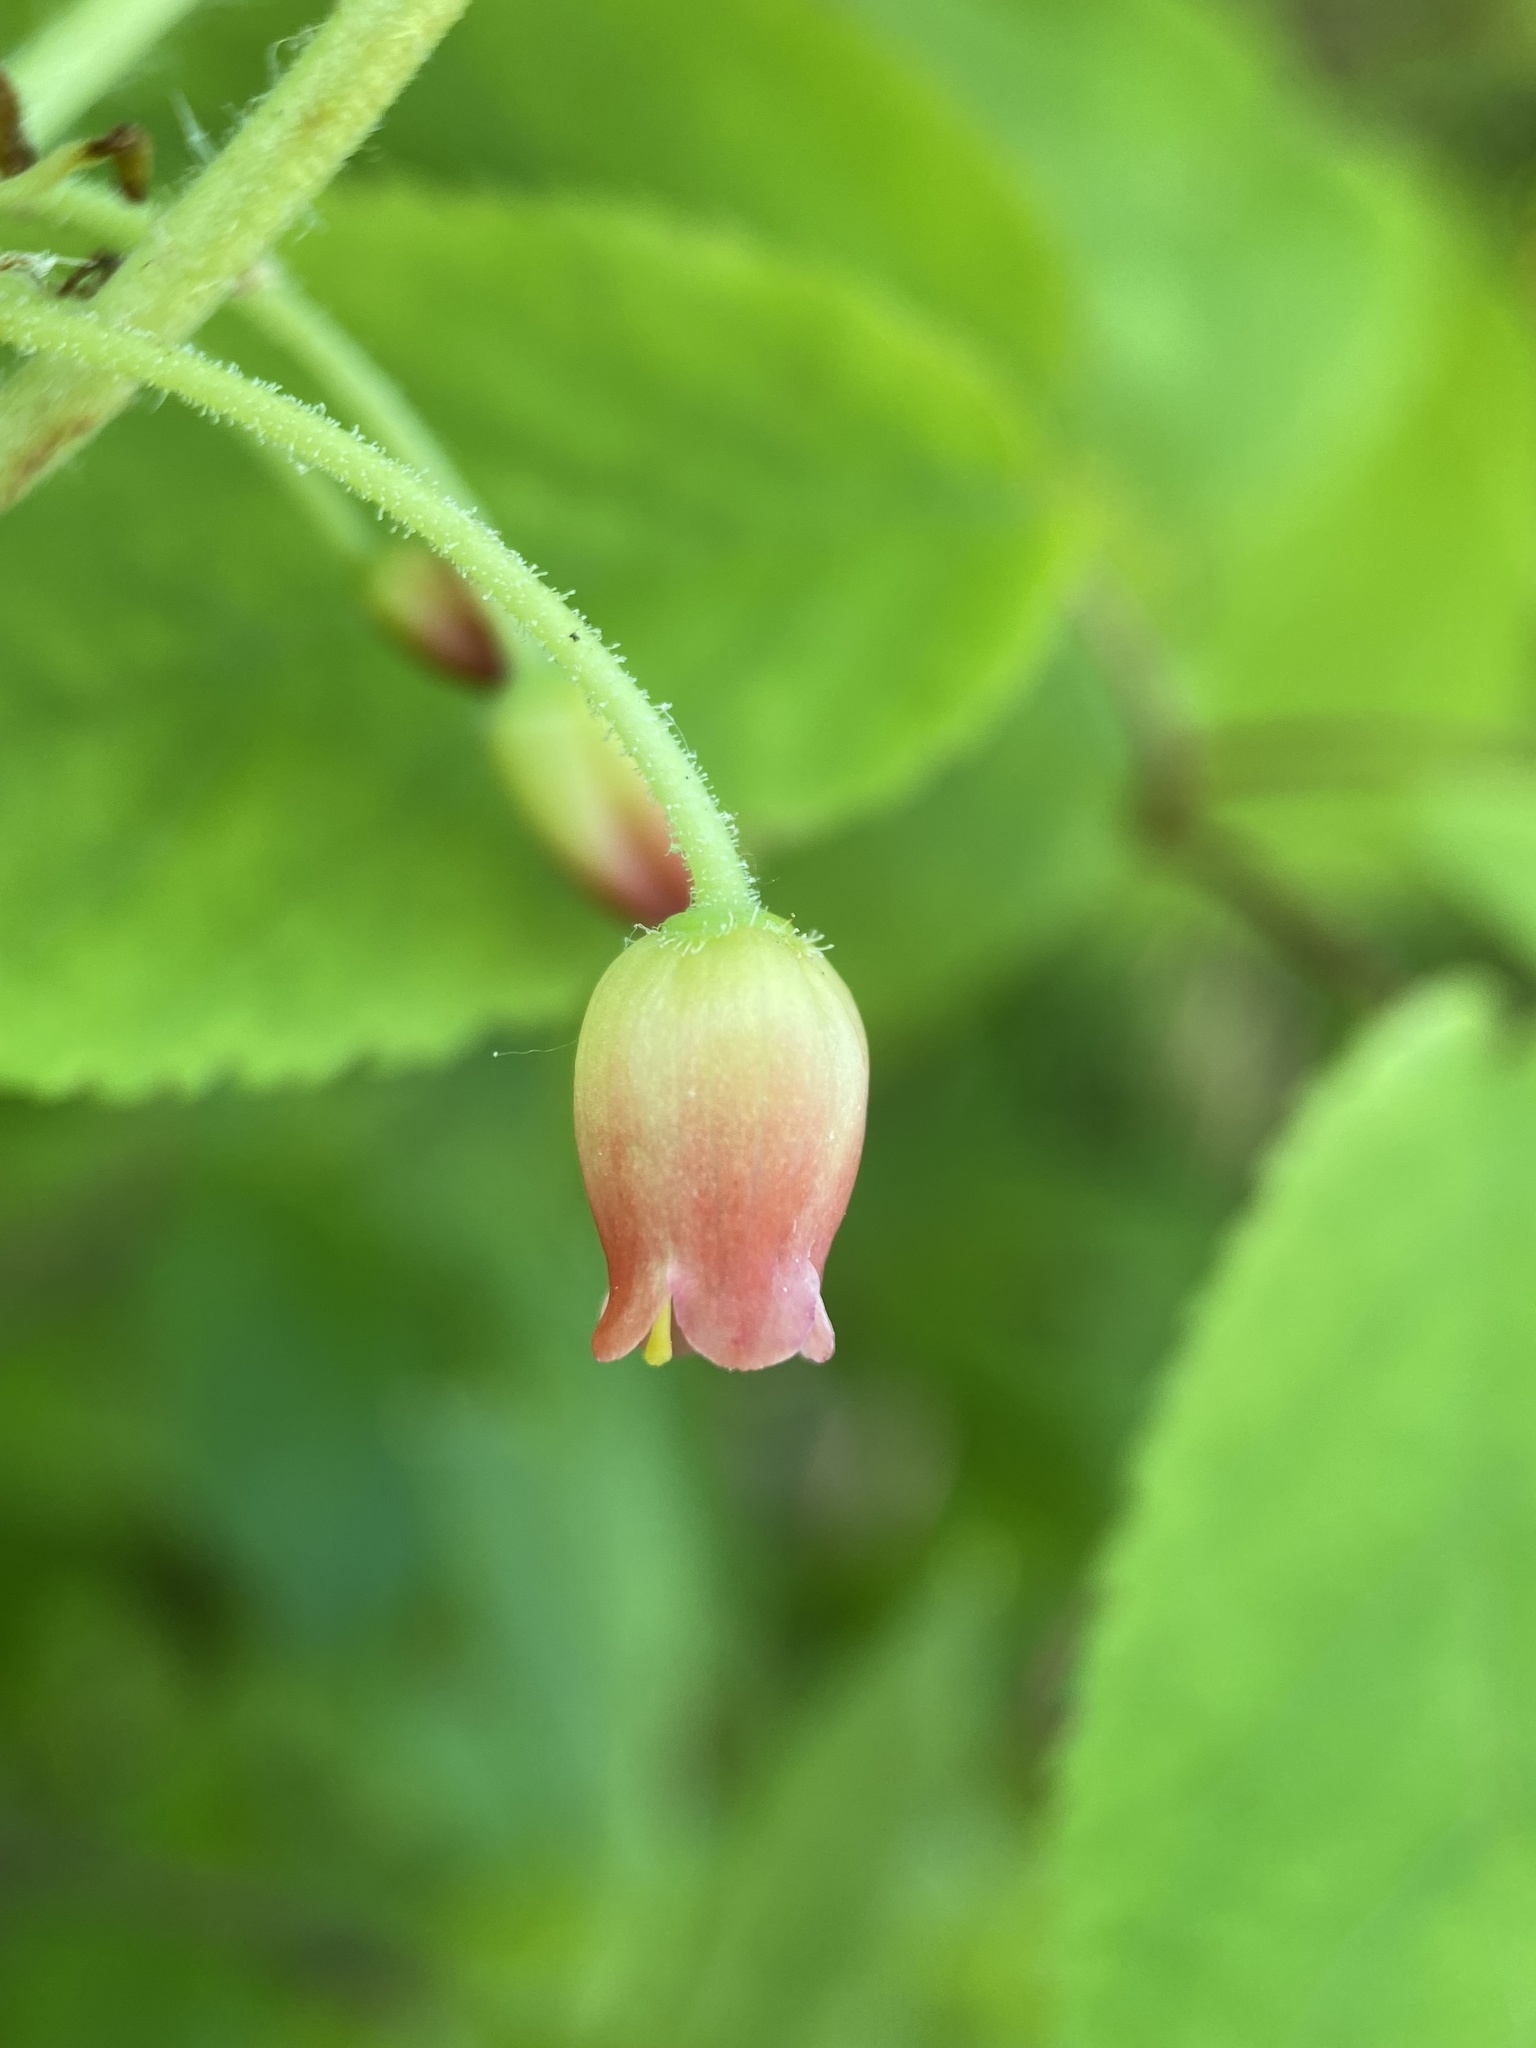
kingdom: Plantae
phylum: Tracheophyta
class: Magnoliopsida
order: Ericales
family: Ericaceae
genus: Rhododendron
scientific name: Rhododendron pilosum
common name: Hairy minniebush
